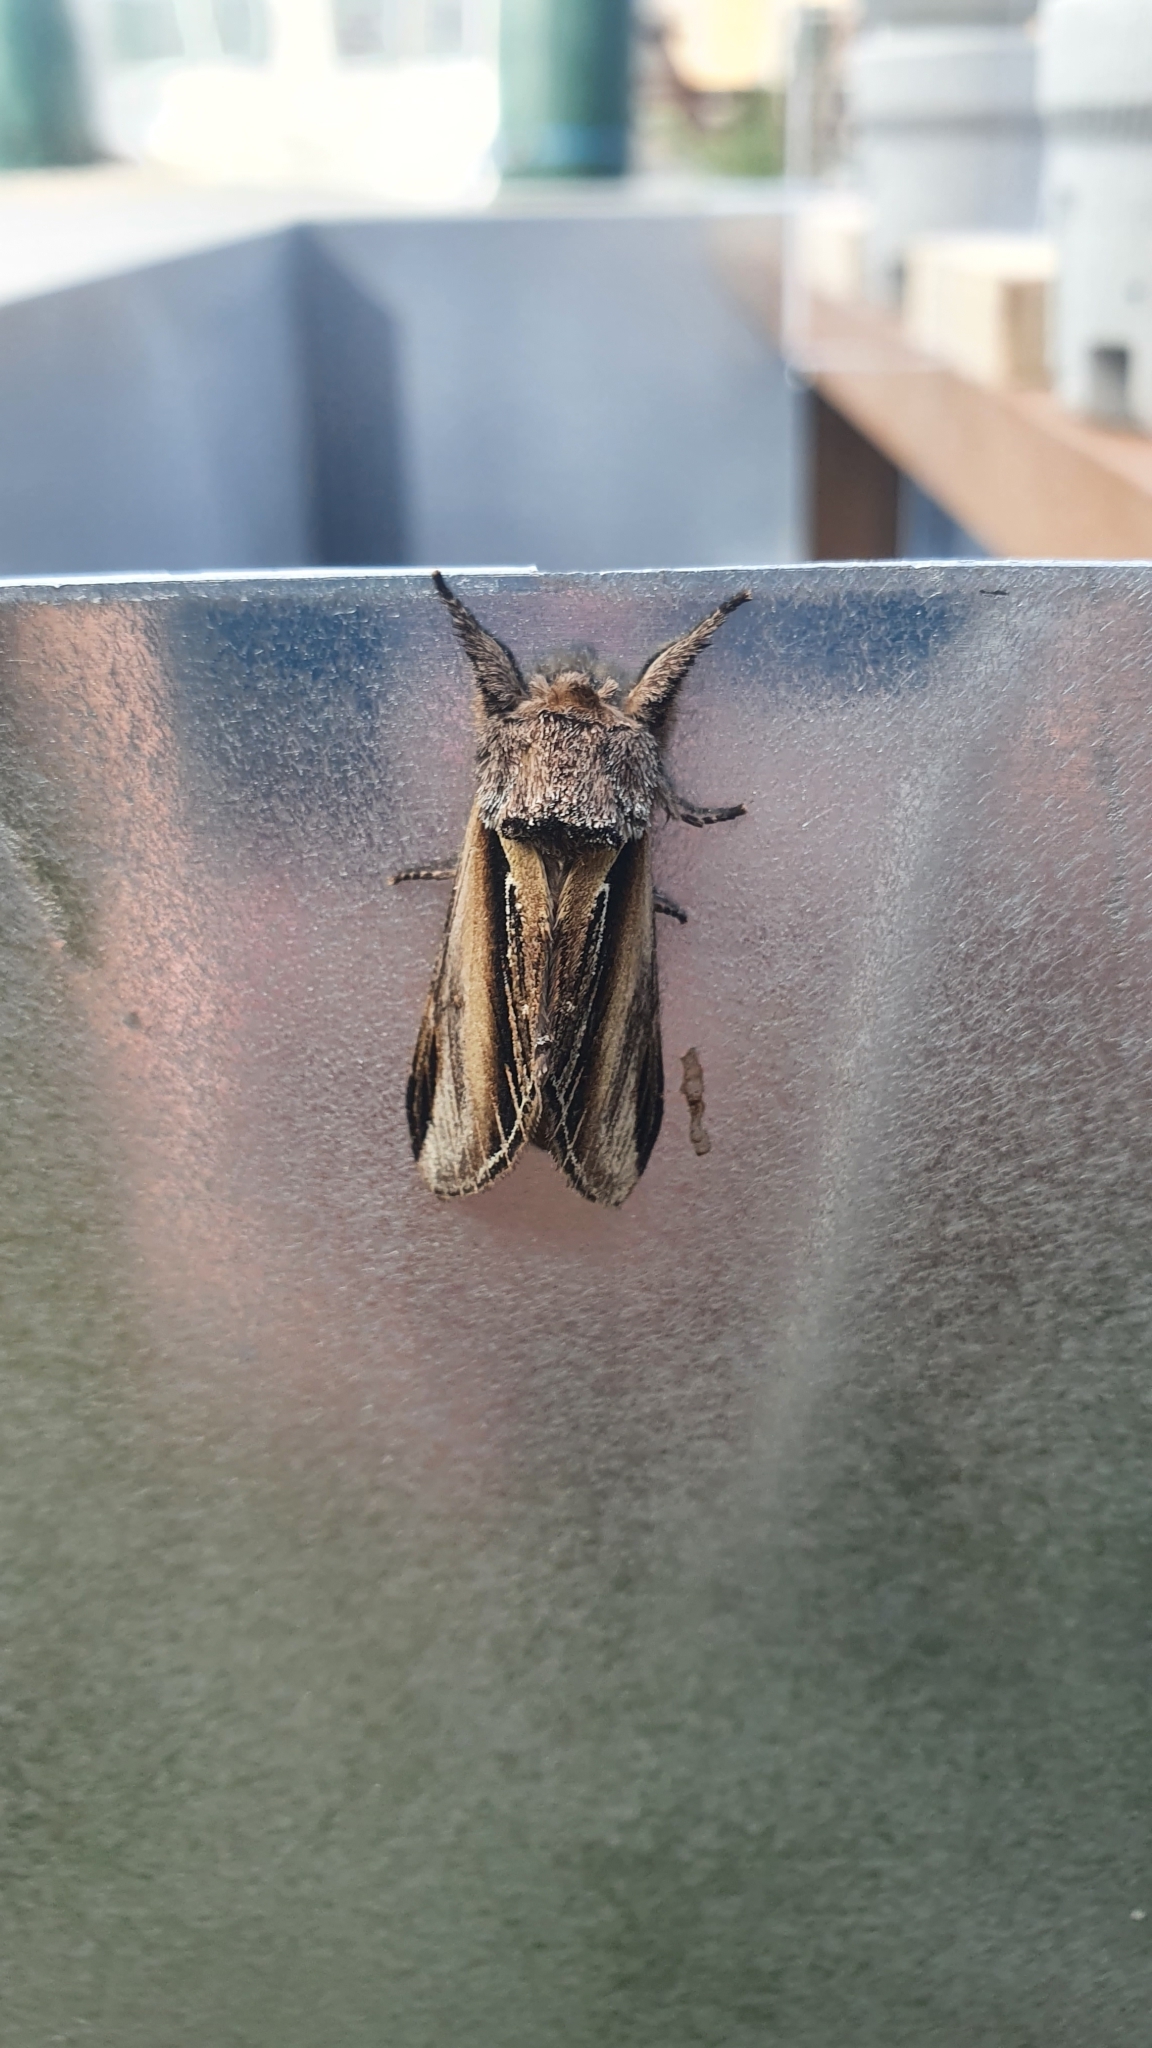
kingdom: Animalia
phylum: Arthropoda
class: Insecta
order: Lepidoptera
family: Notodontidae
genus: Pheosia
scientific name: Pheosia tremula
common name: Swallow prominent
